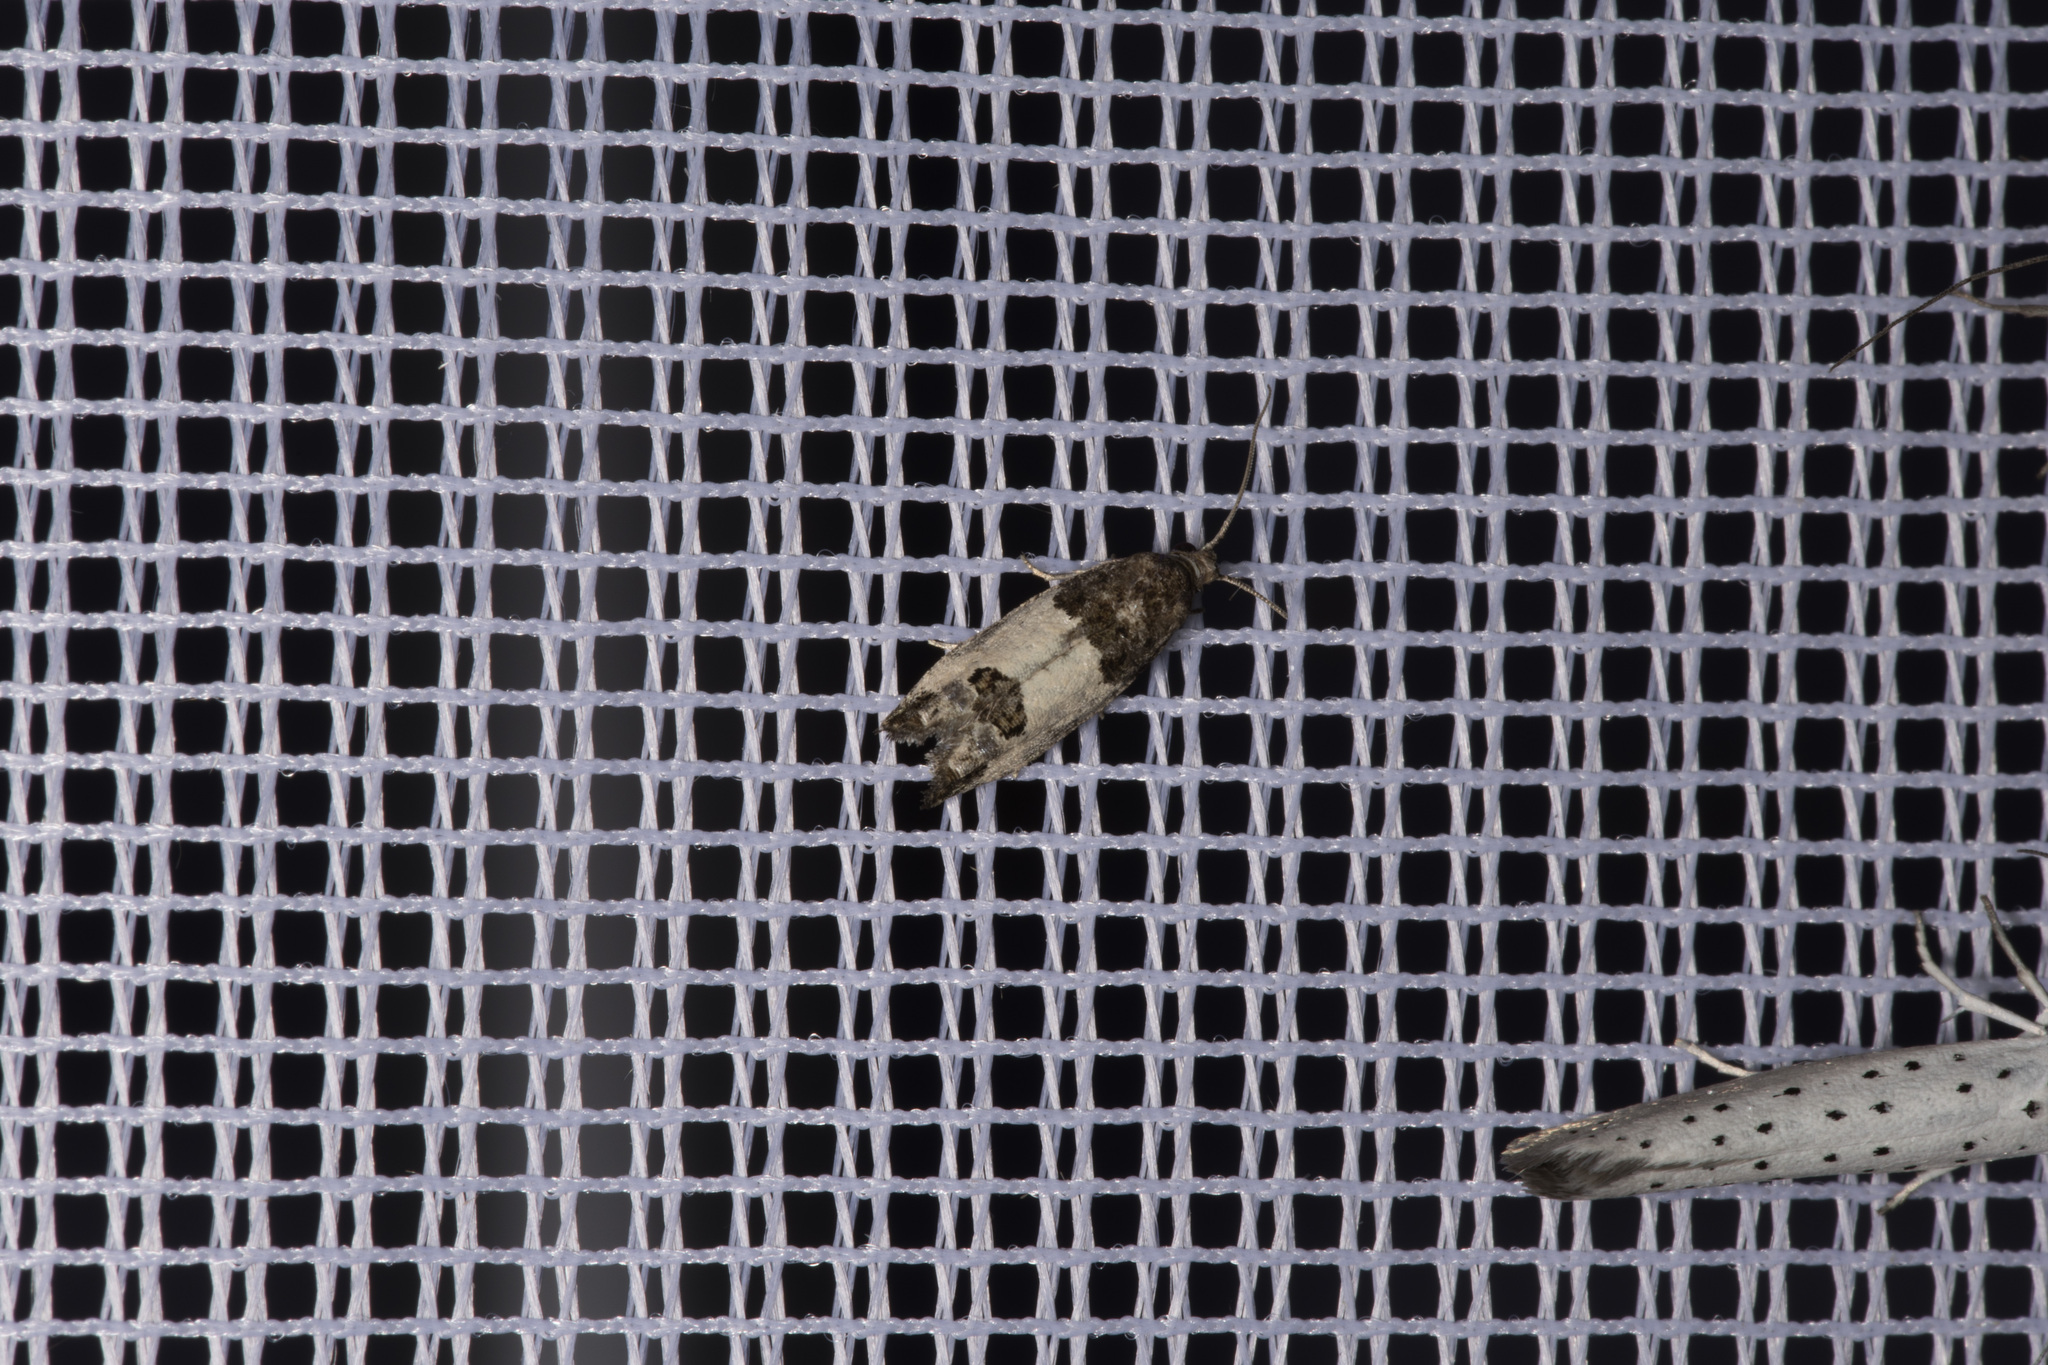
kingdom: Animalia
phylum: Arthropoda
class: Insecta
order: Lepidoptera
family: Tortricidae
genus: Spilonota
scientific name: Spilonota ocellana
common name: Bud moth
